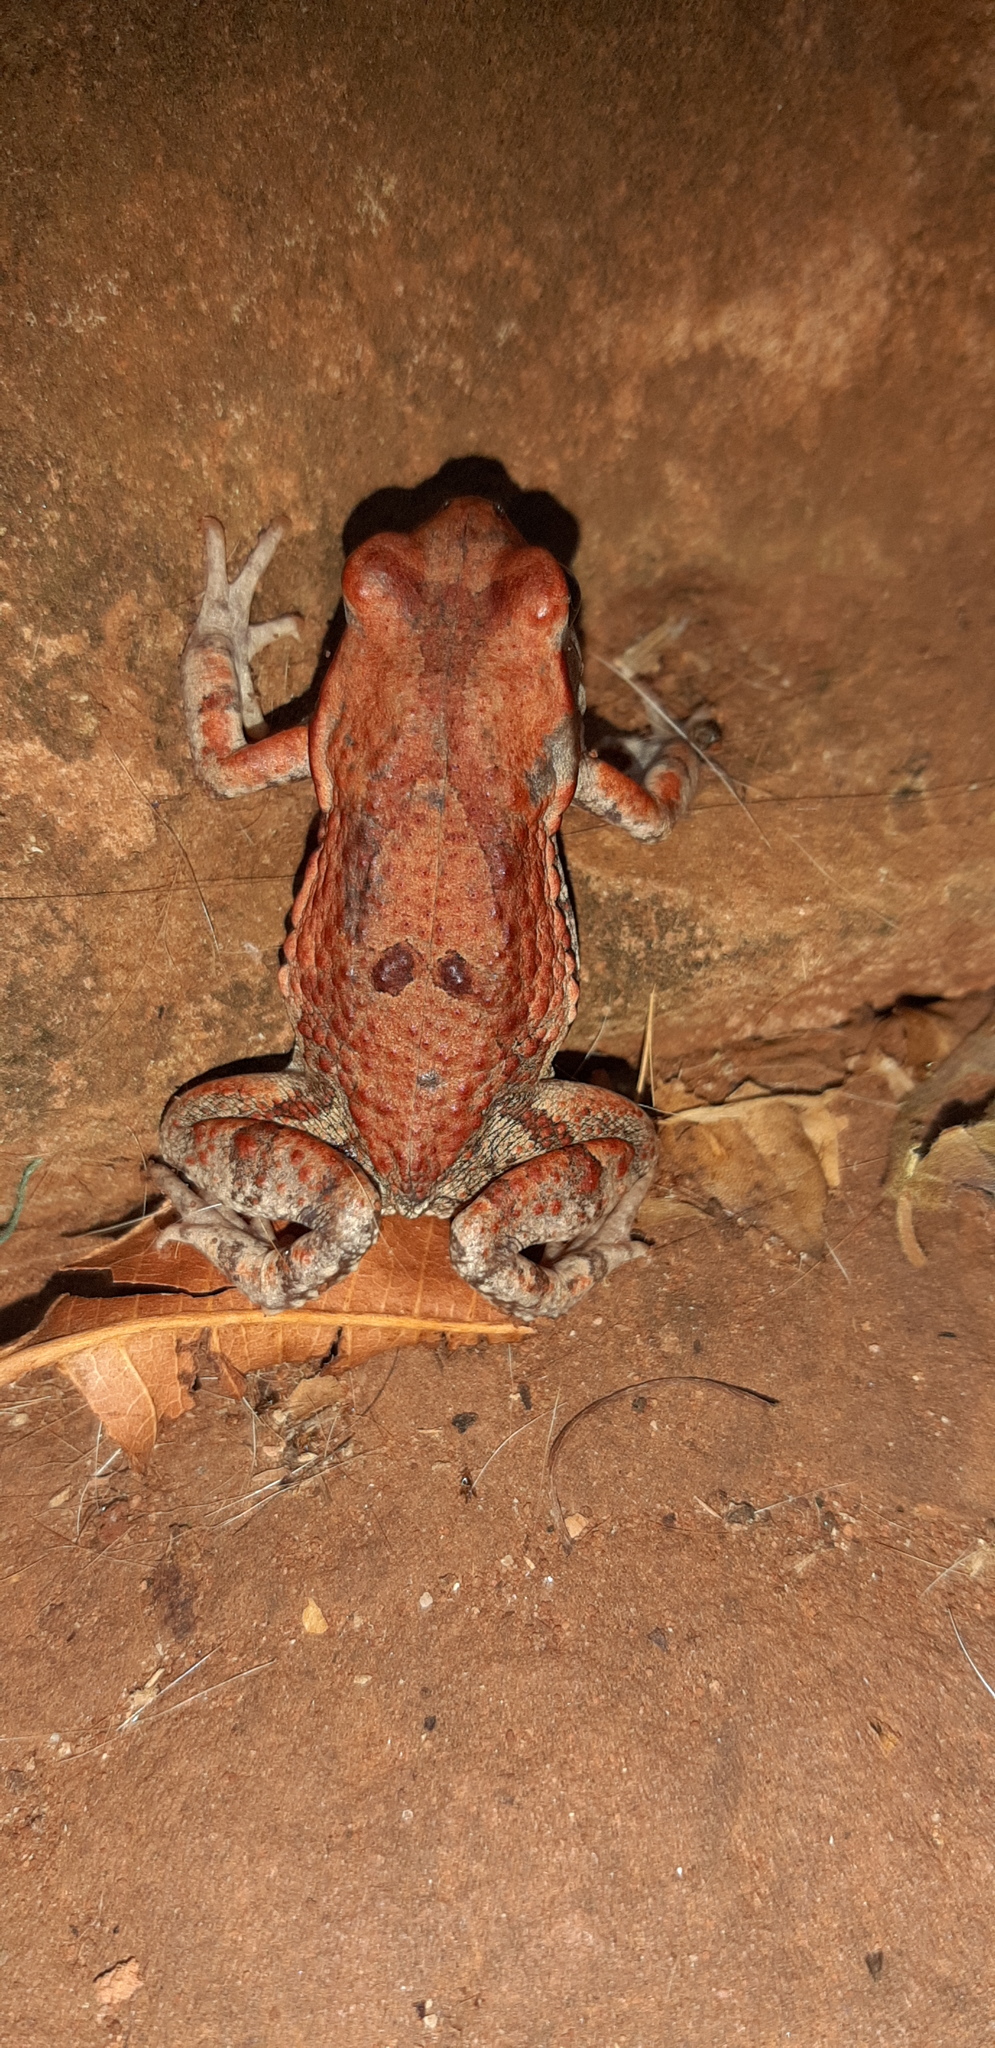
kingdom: Animalia
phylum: Chordata
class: Amphibia
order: Anura
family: Bufonidae
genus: Schismaderma
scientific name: Schismaderma carens
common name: African split-skin toad
